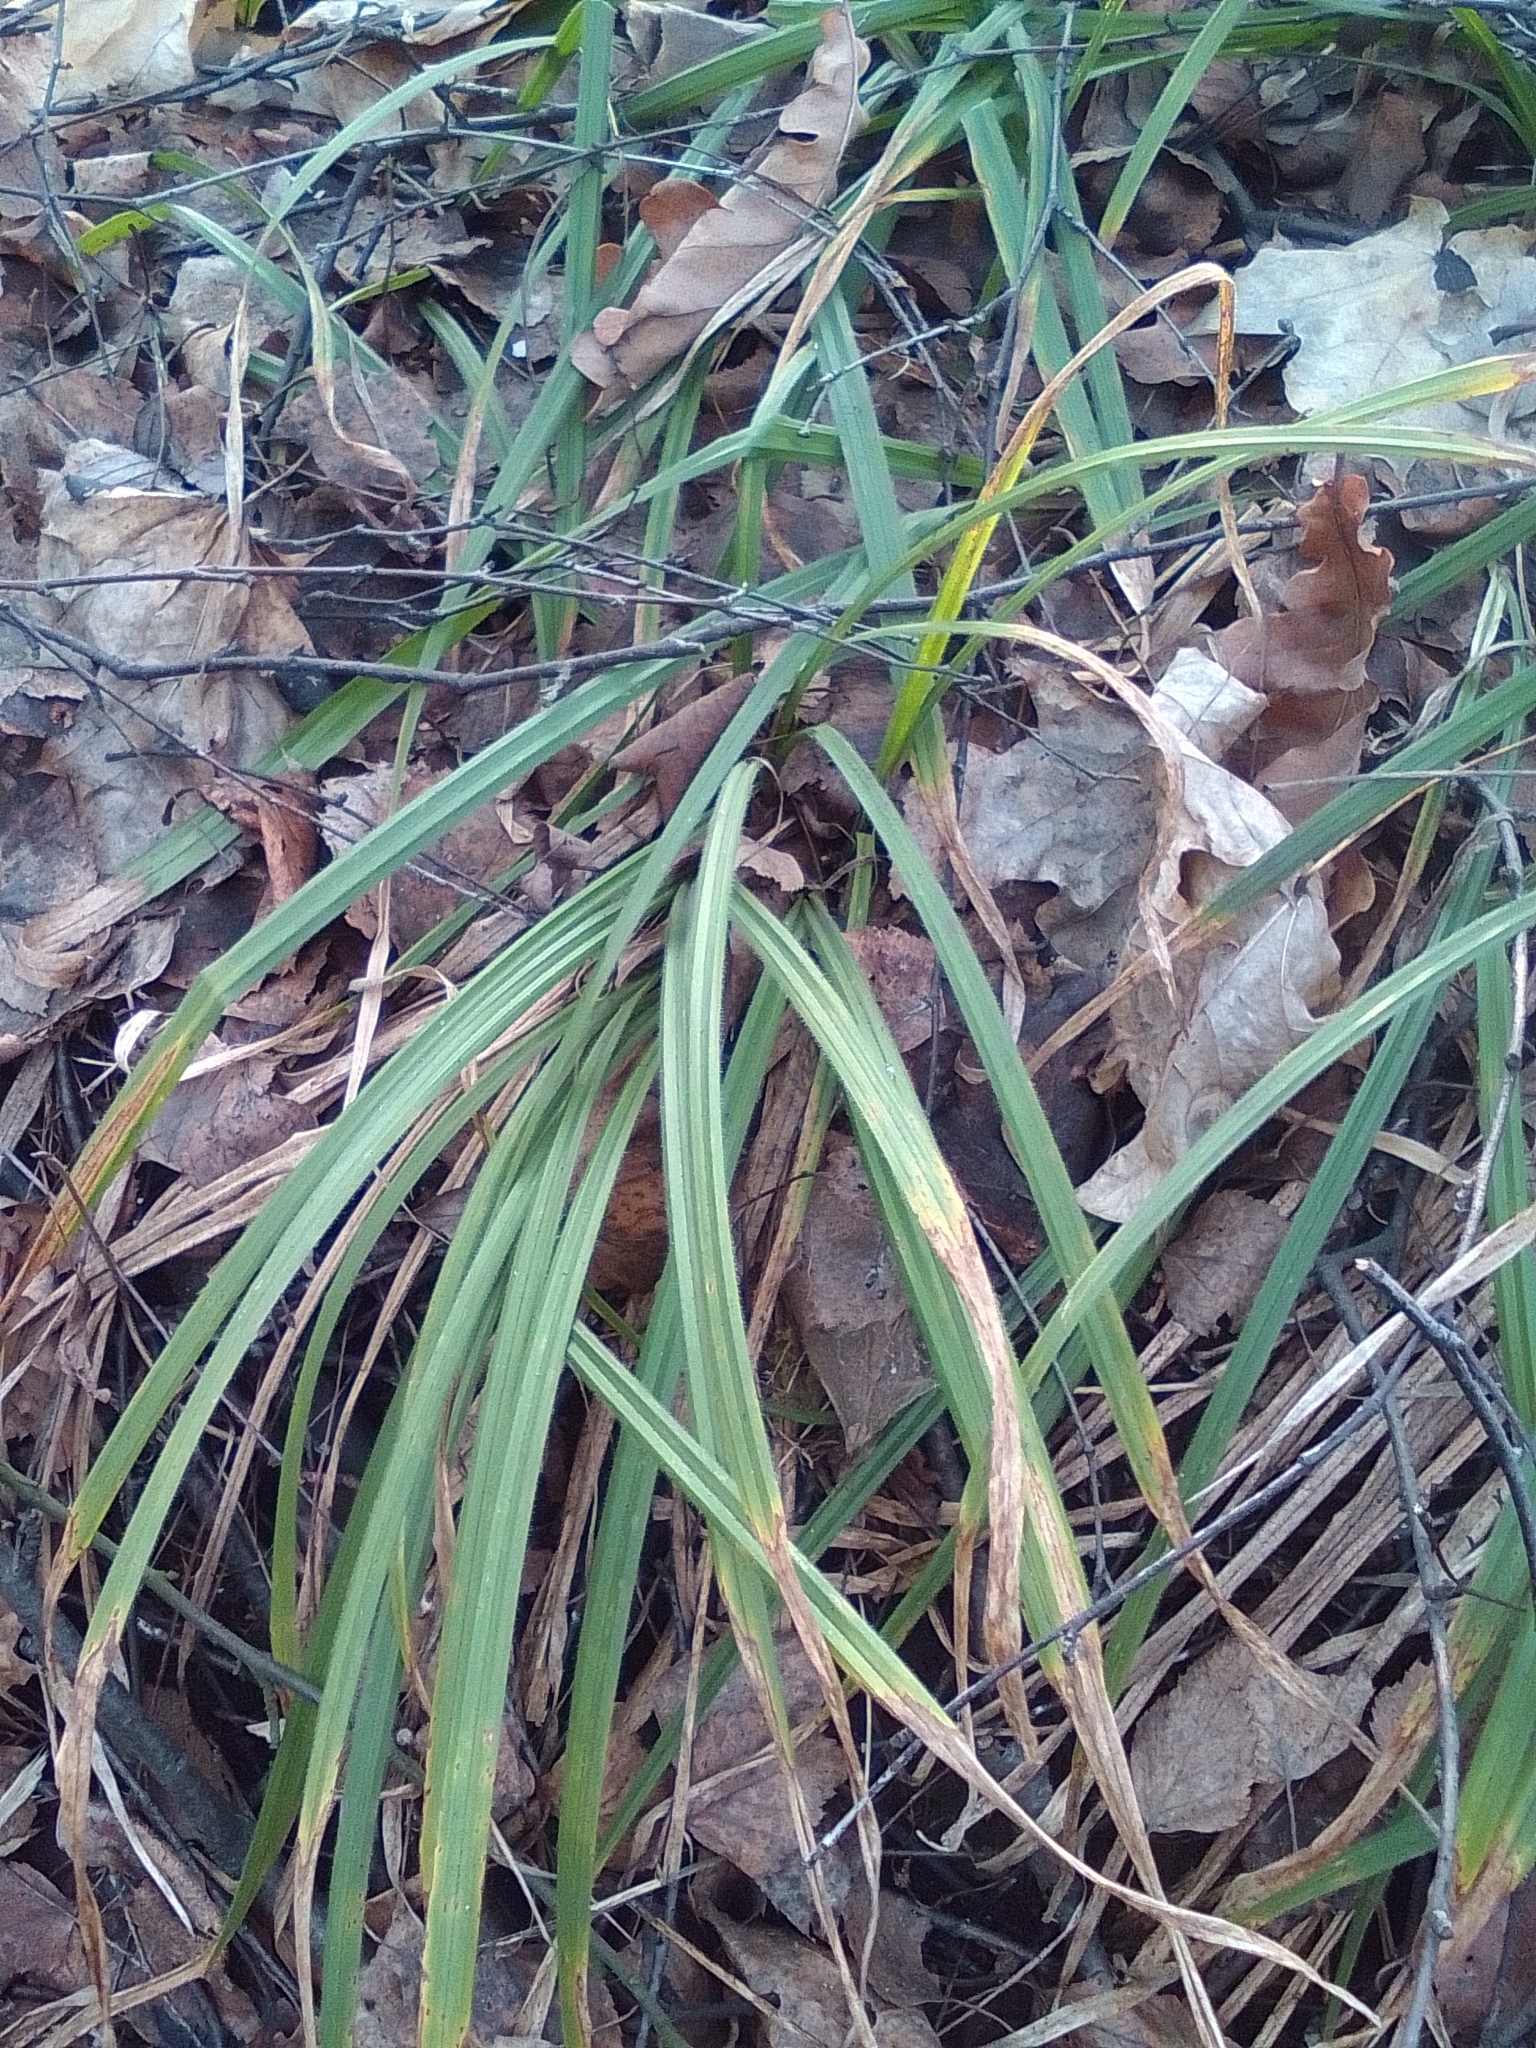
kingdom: Plantae
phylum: Tracheophyta
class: Liliopsida
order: Poales
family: Cyperaceae
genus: Carex
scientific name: Carex pilosa
